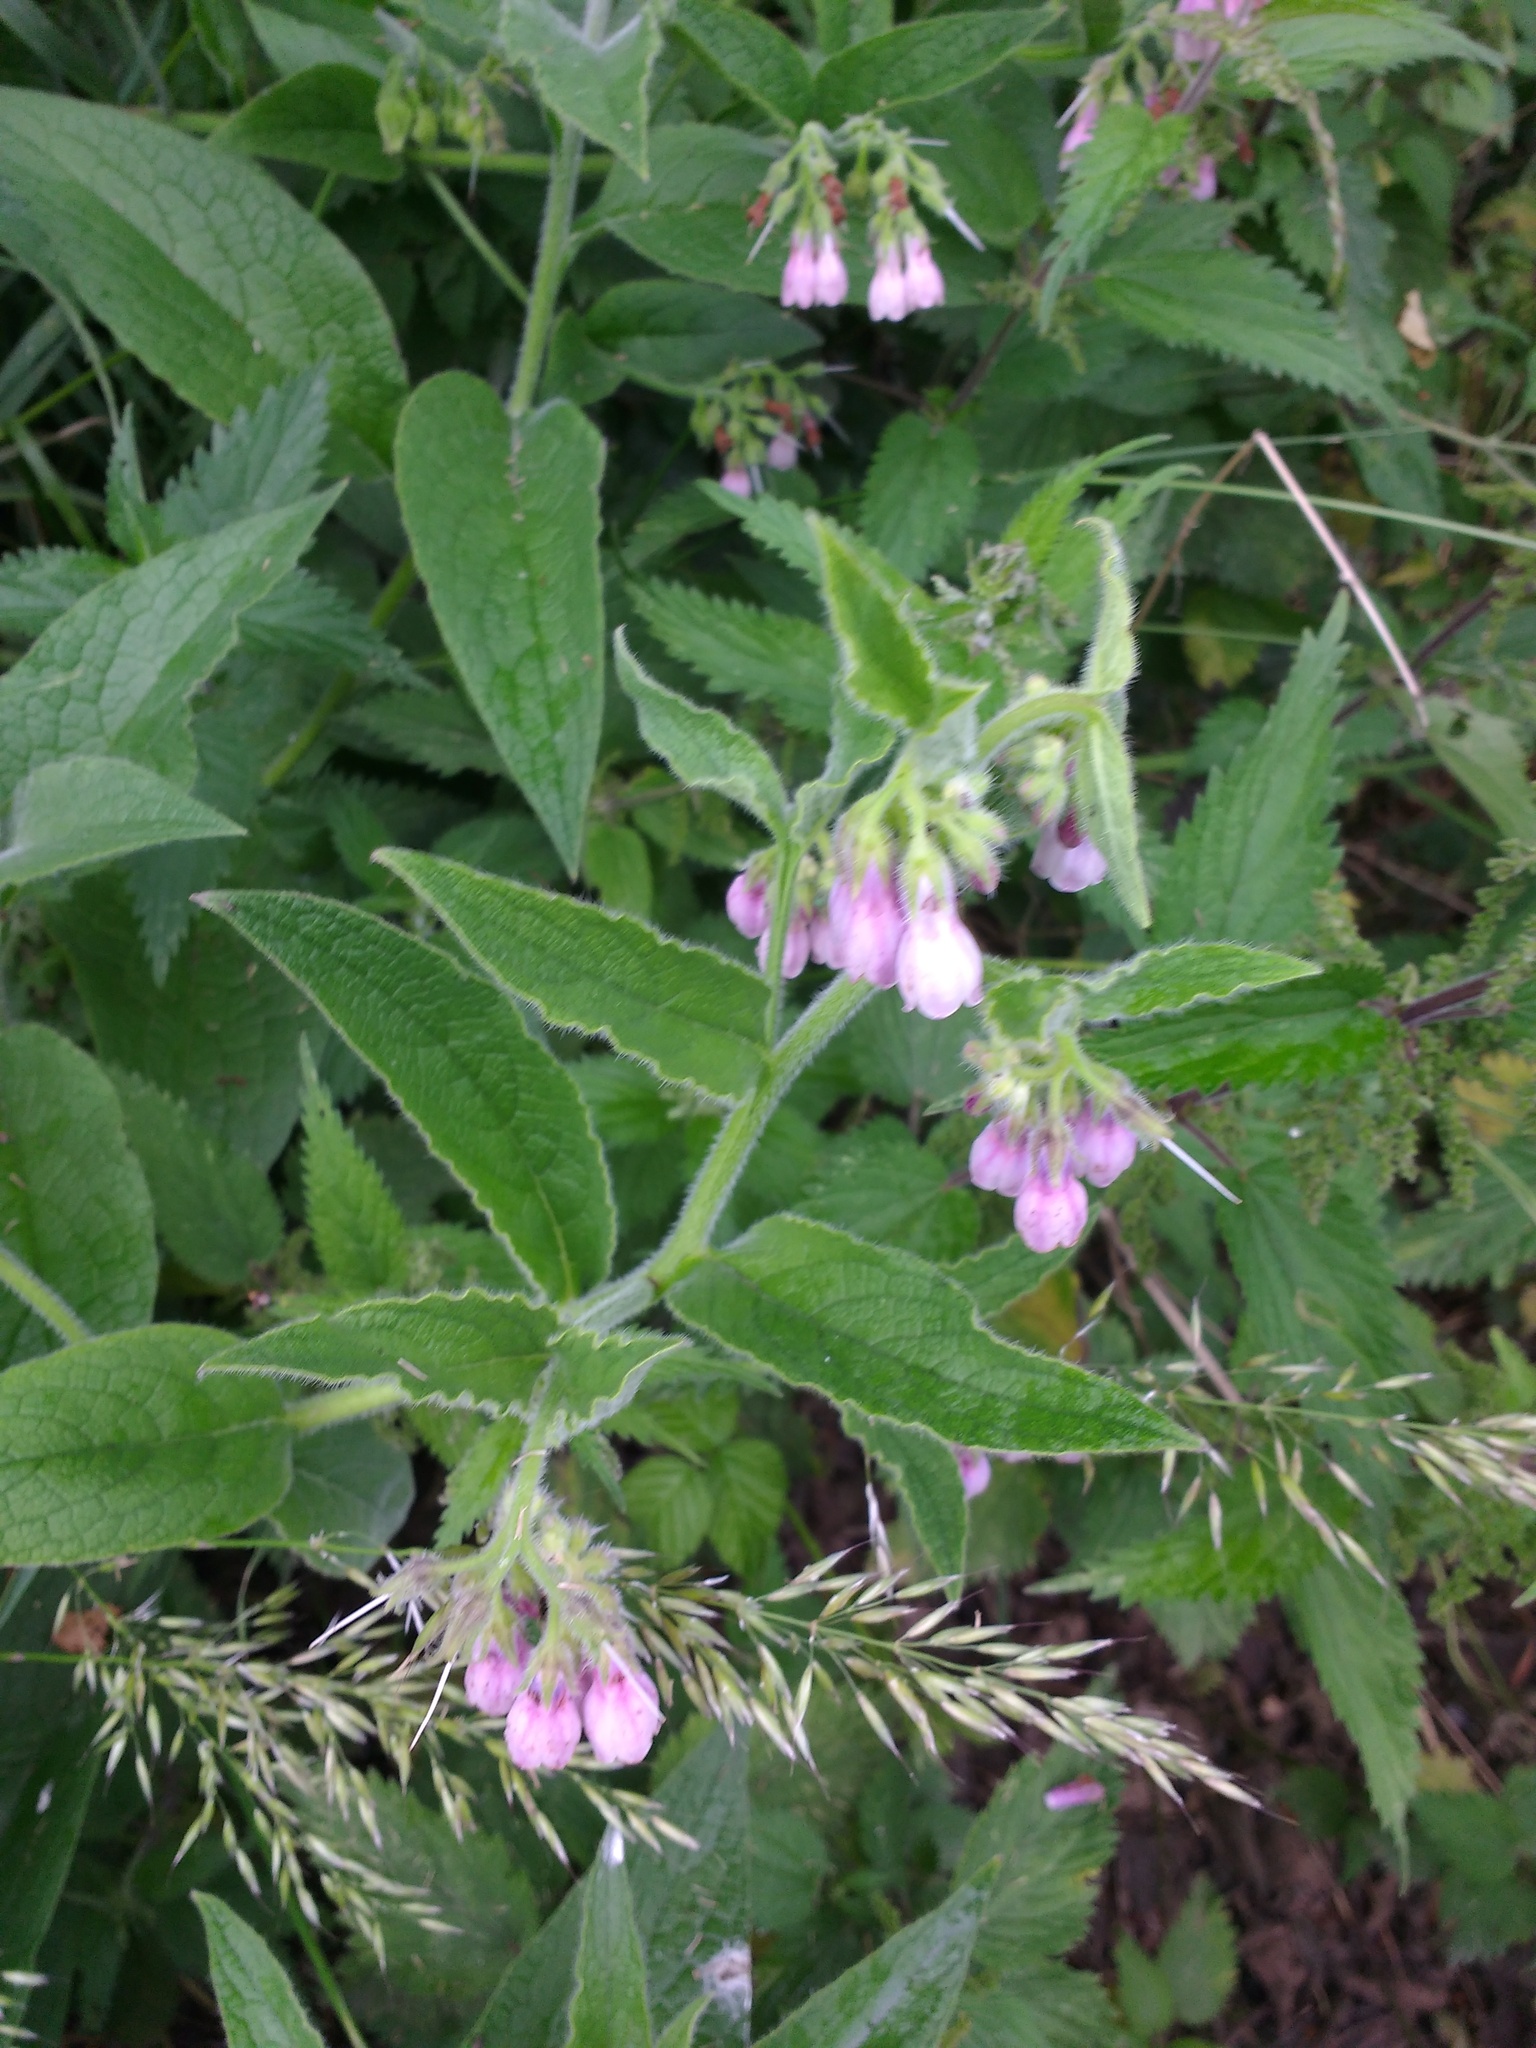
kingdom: Plantae
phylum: Tracheophyta
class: Magnoliopsida
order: Boraginales
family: Boraginaceae
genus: Symphytum
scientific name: Symphytum officinale
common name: Common comfrey
